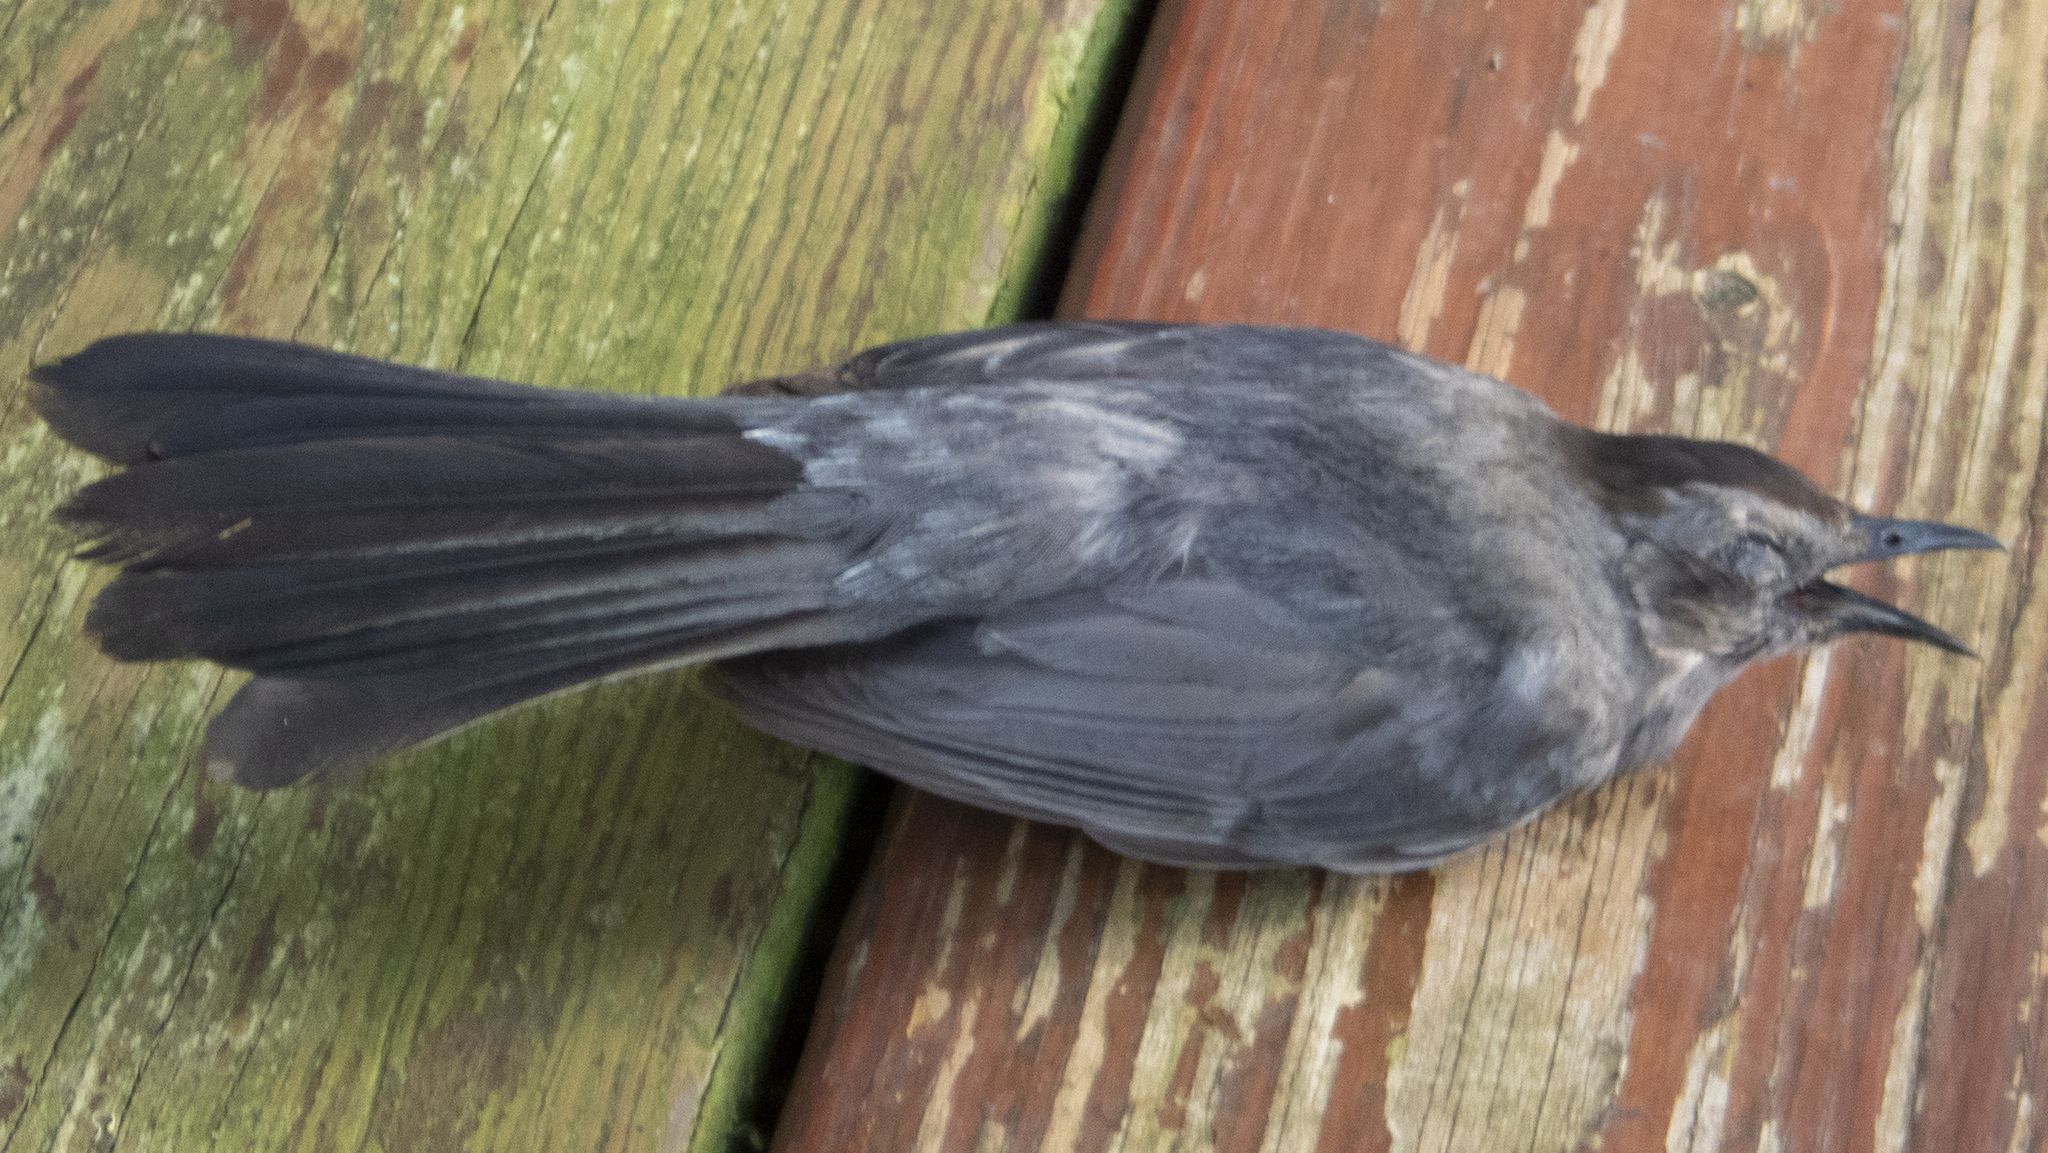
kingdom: Animalia
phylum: Chordata
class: Aves
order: Passeriformes
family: Mimidae
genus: Dumetella
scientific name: Dumetella carolinensis
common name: Gray catbird
